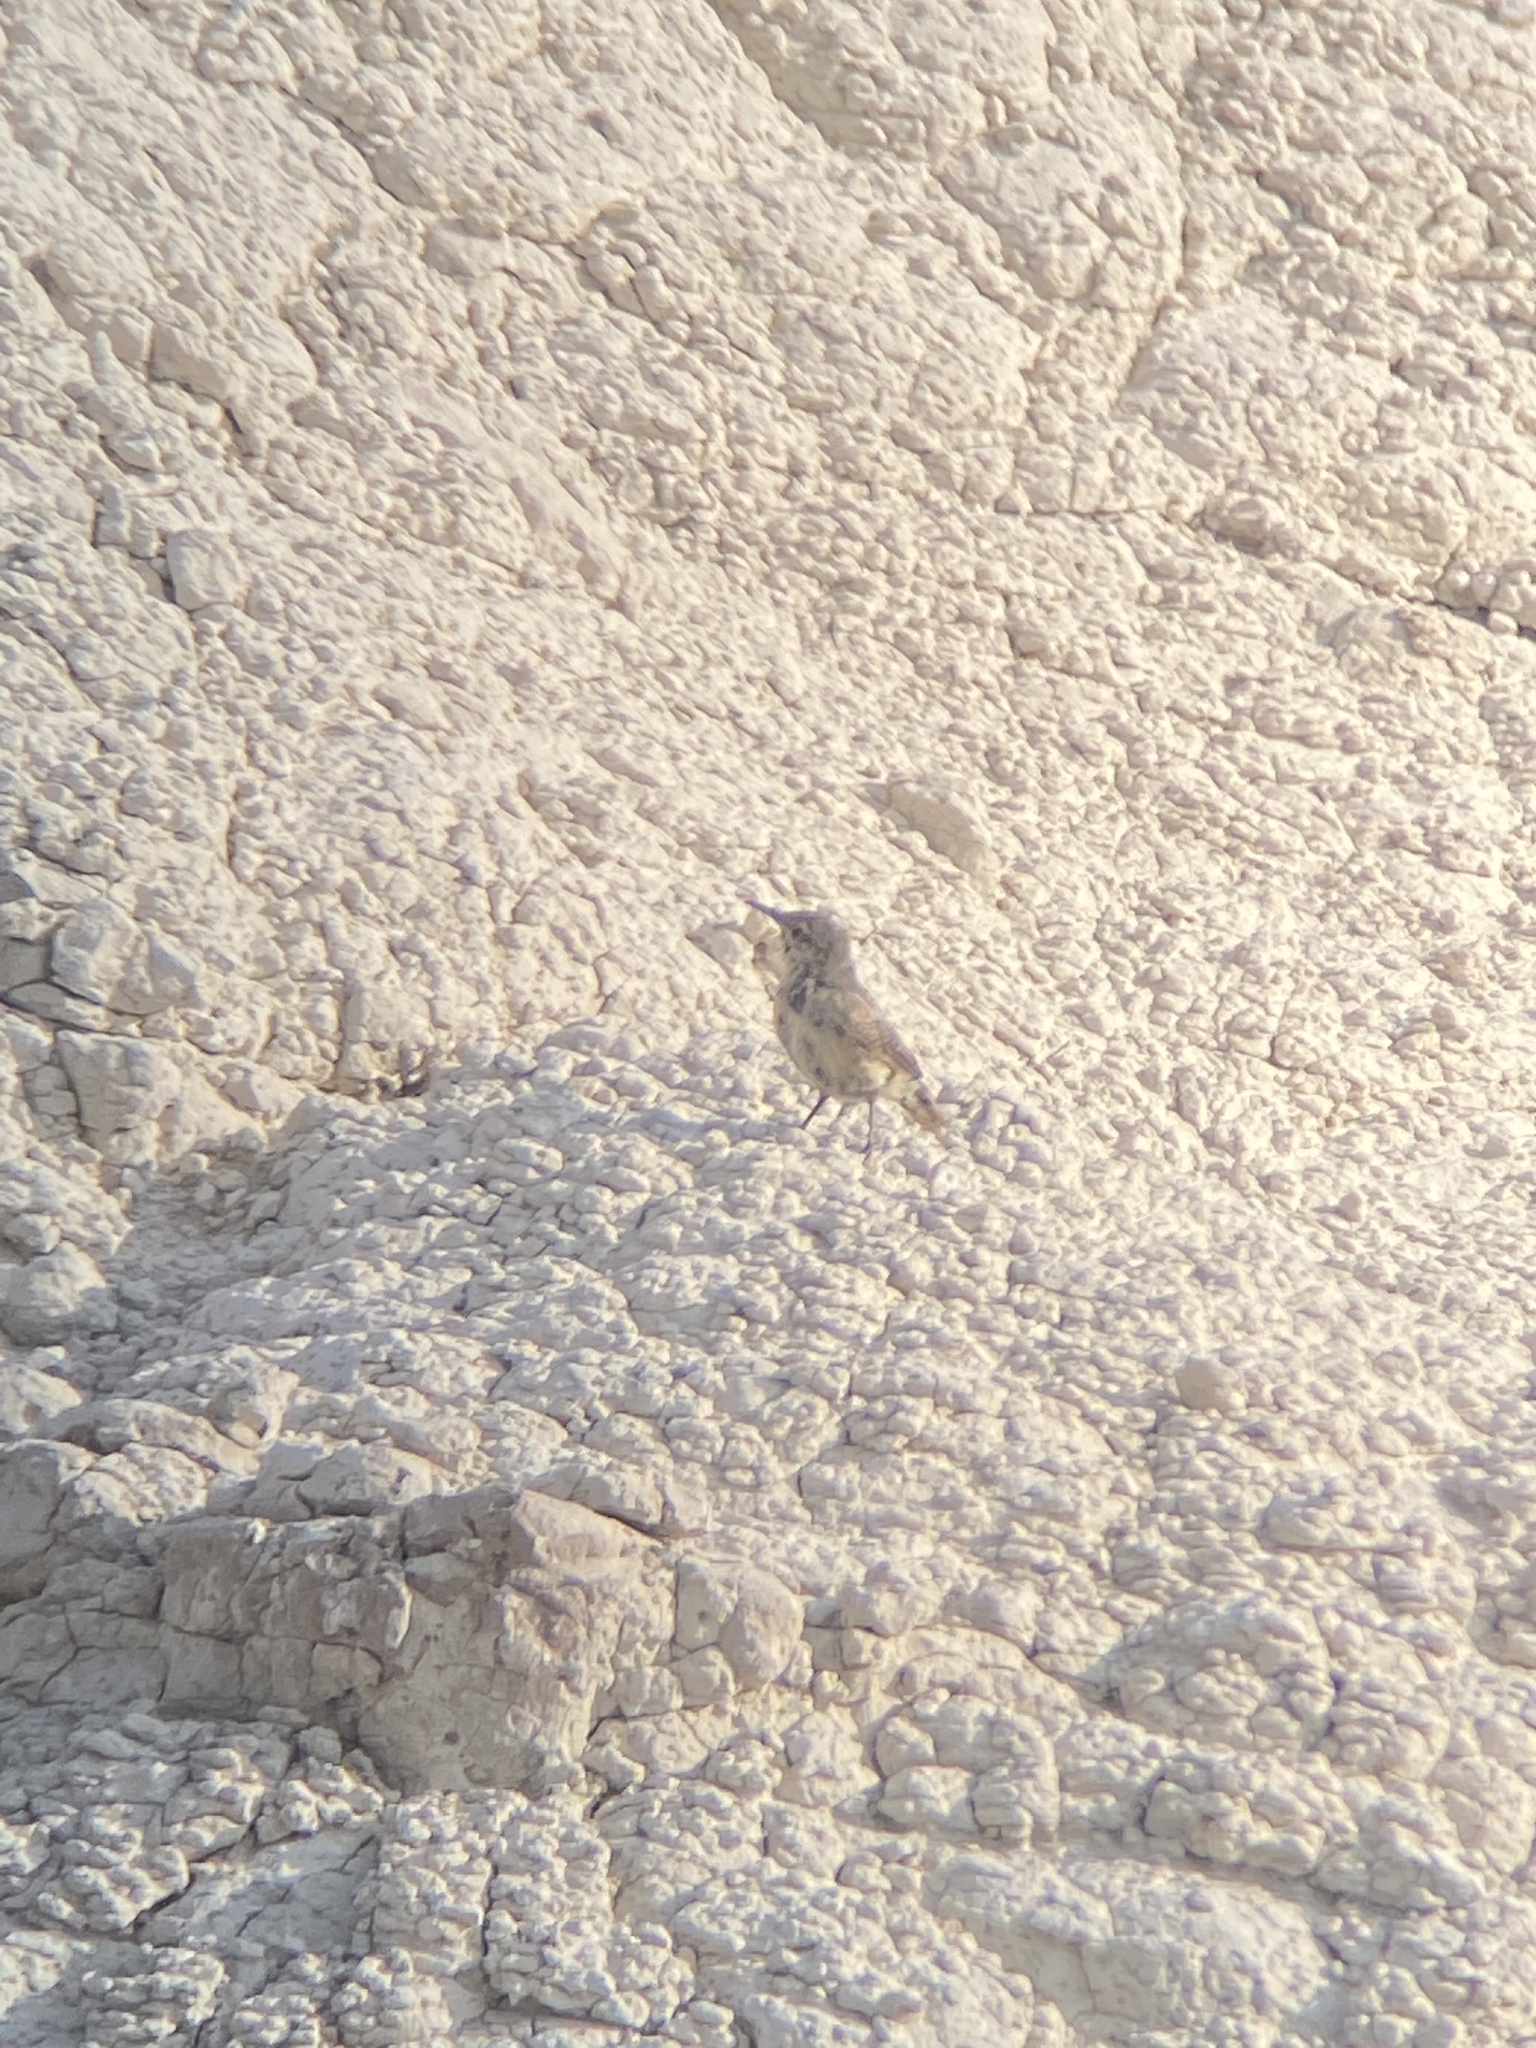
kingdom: Animalia
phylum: Chordata
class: Aves
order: Passeriformes
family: Troglodytidae
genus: Salpinctes
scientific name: Salpinctes obsoletus
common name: Rock wren
